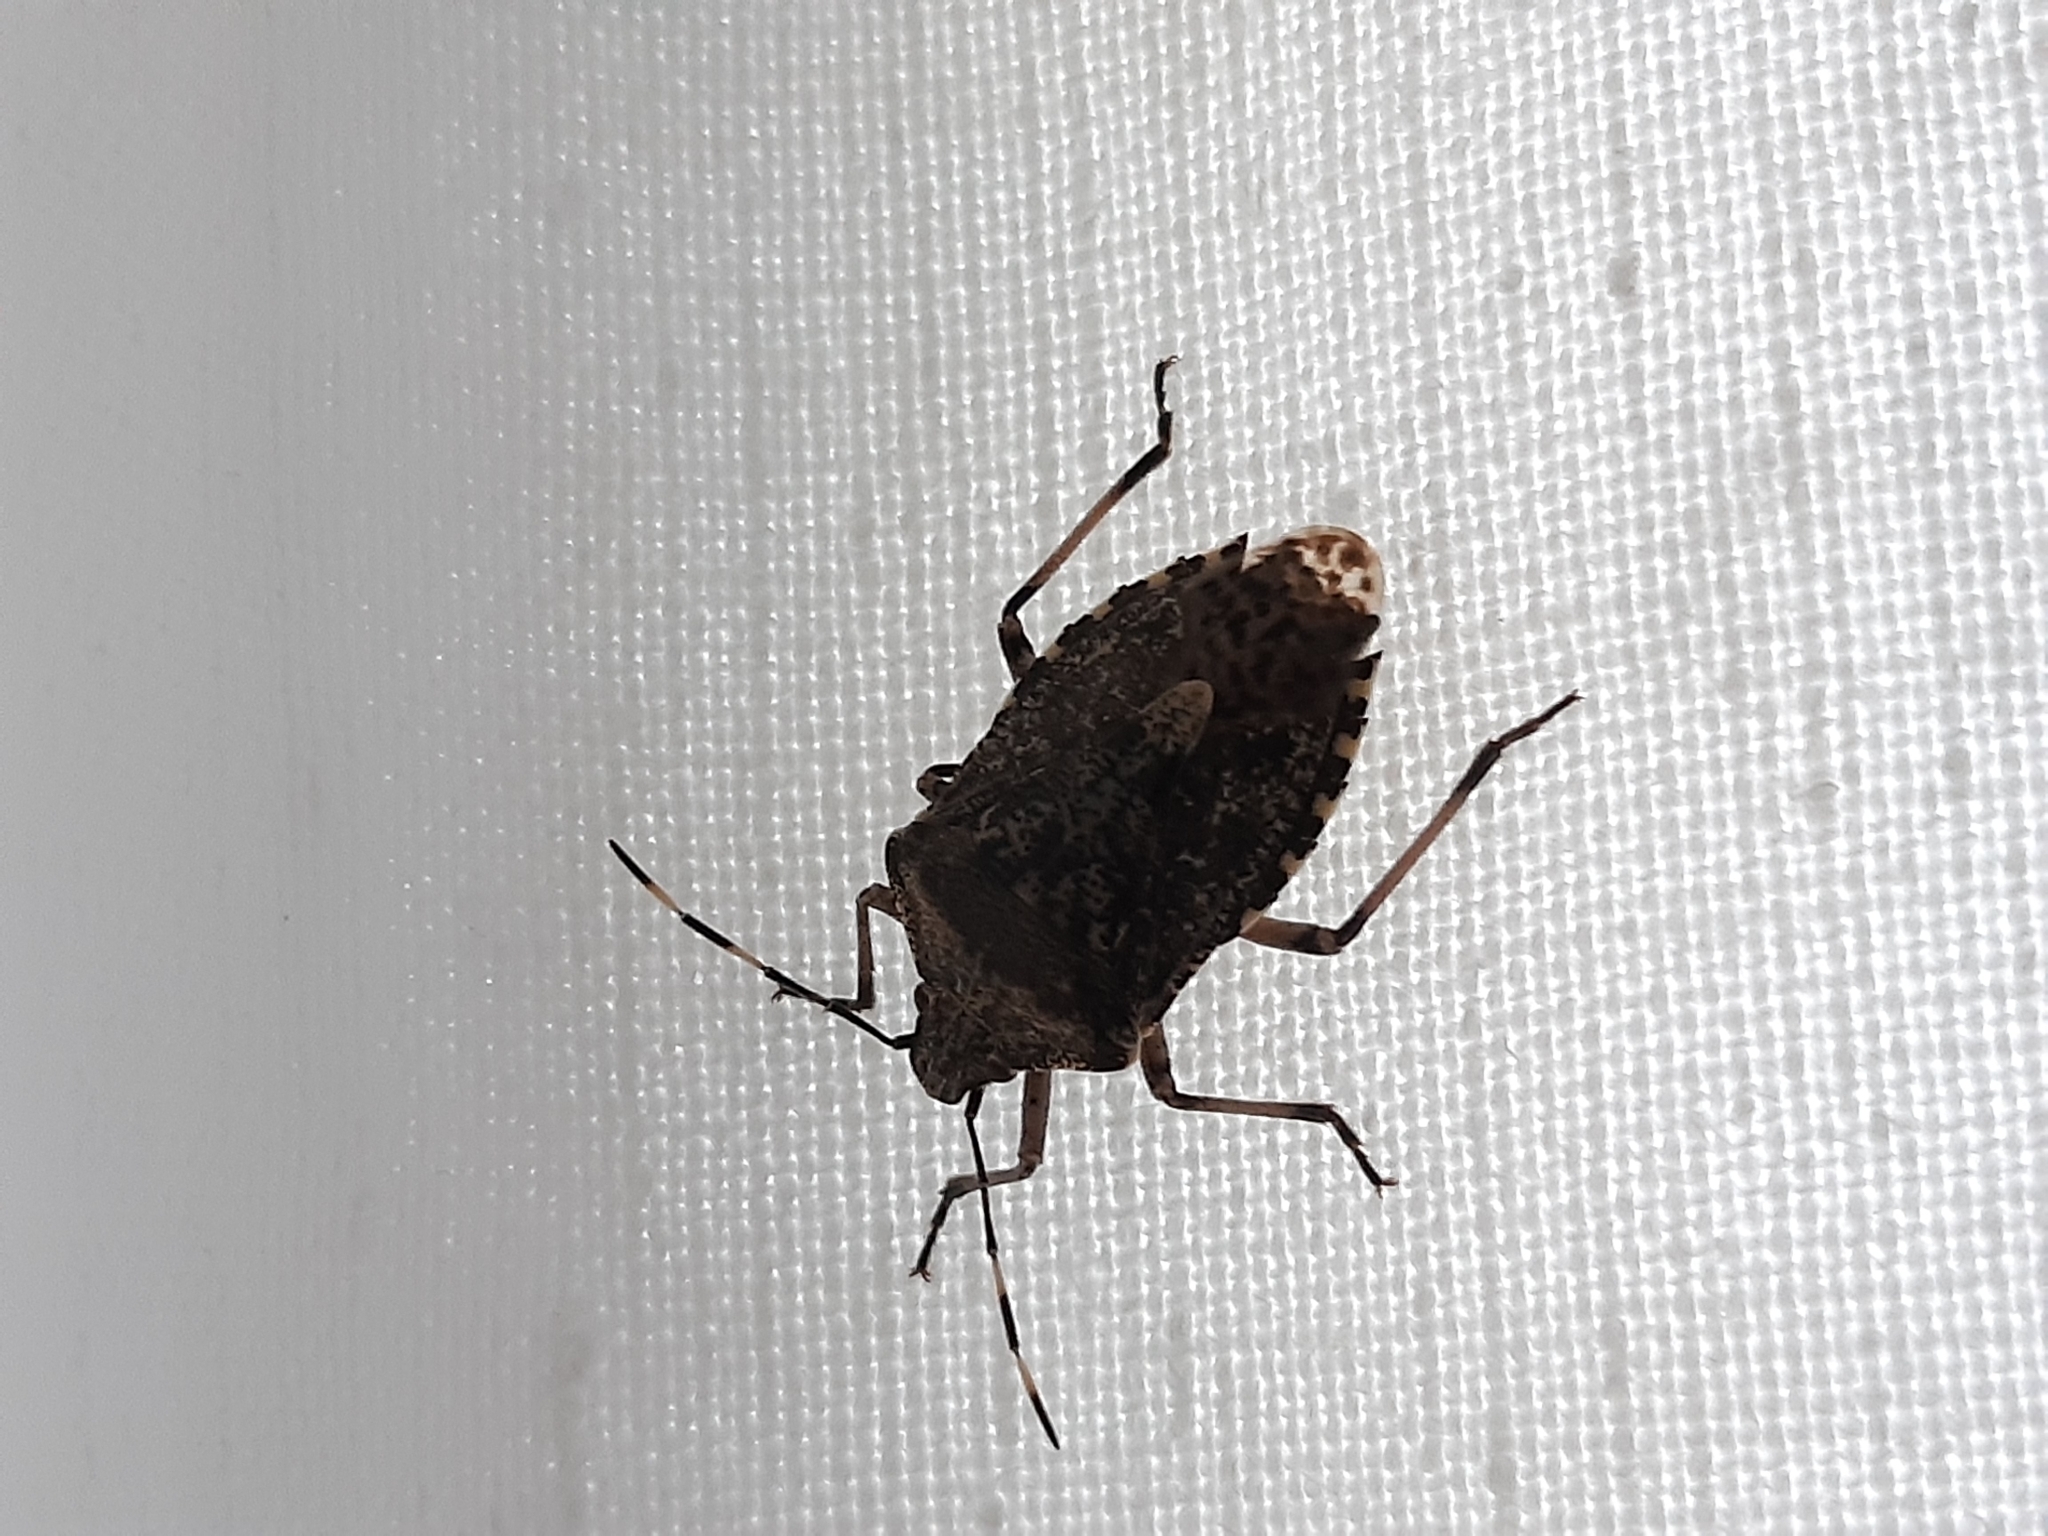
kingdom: Animalia
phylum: Arthropoda
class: Insecta
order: Hemiptera
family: Pentatomidae
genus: Rhaphigaster
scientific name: Rhaphigaster nebulosa
